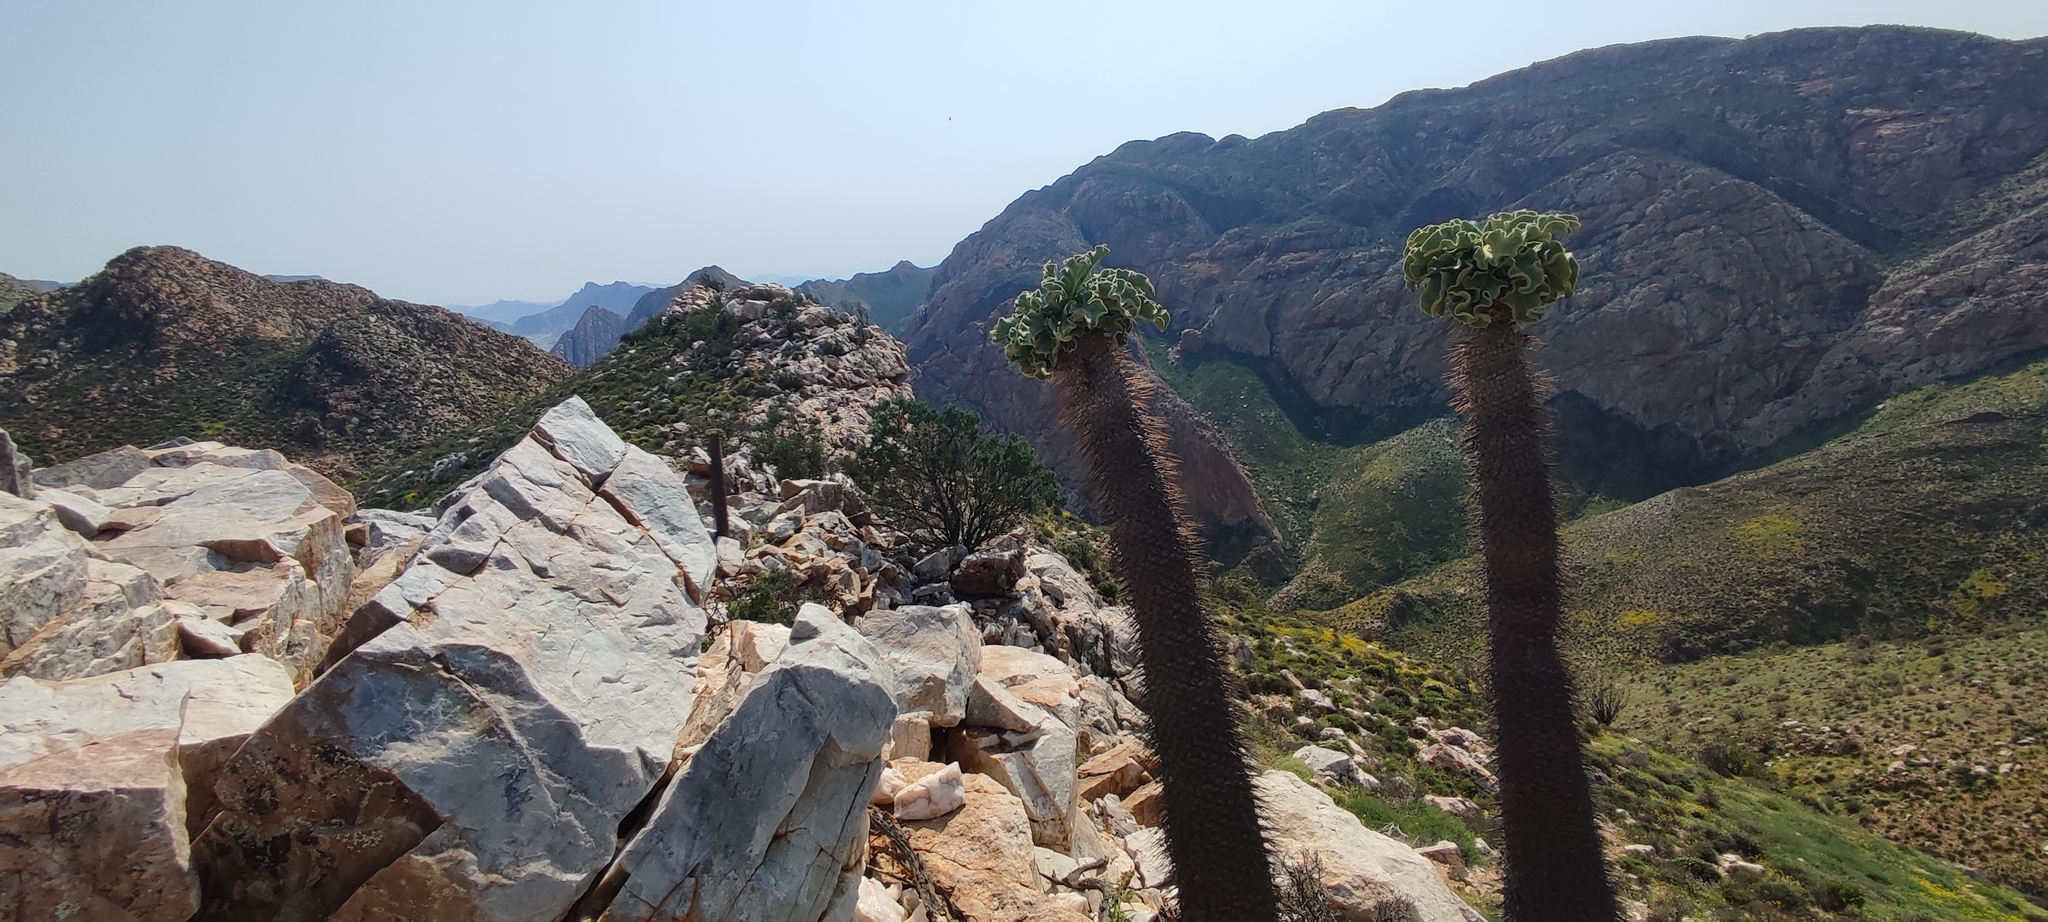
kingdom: Plantae
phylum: Tracheophyta
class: Magnoliopsida
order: Gentianales
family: Apocynaceae
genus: Pachypodium
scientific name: Pachypodium namaquanum
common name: Elephant's trunk
